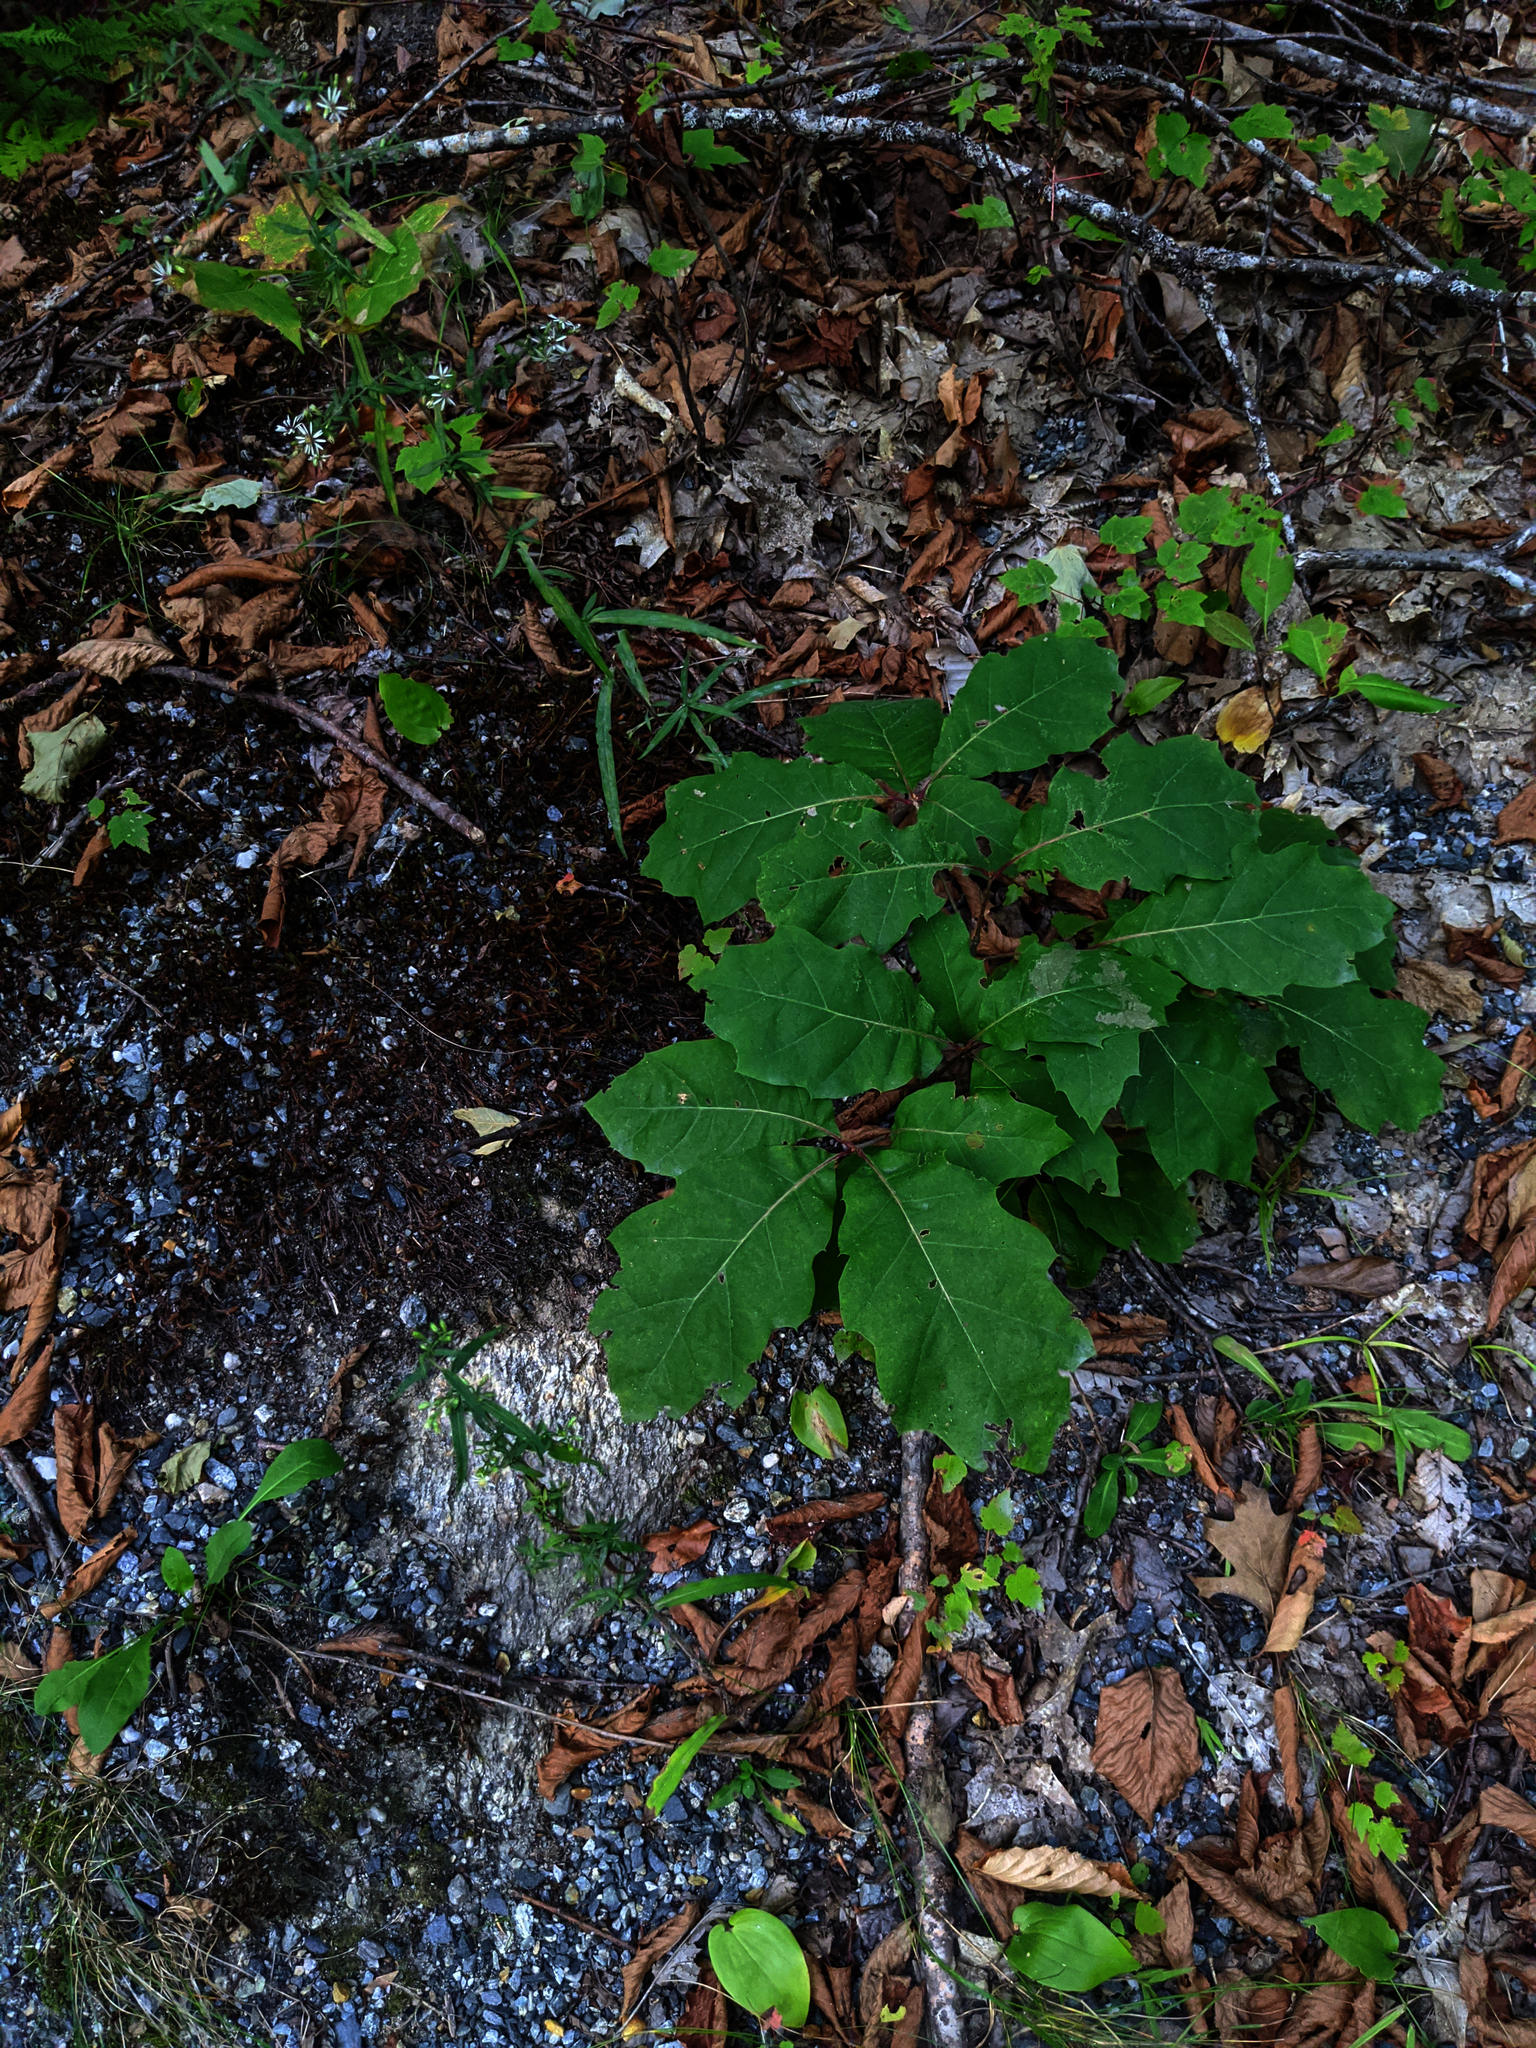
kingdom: Plantae
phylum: Tracheophyta
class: Magnoliopsida
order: Fagales
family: Fagaceae
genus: Quercus
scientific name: Quercus rubra
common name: Red oak
